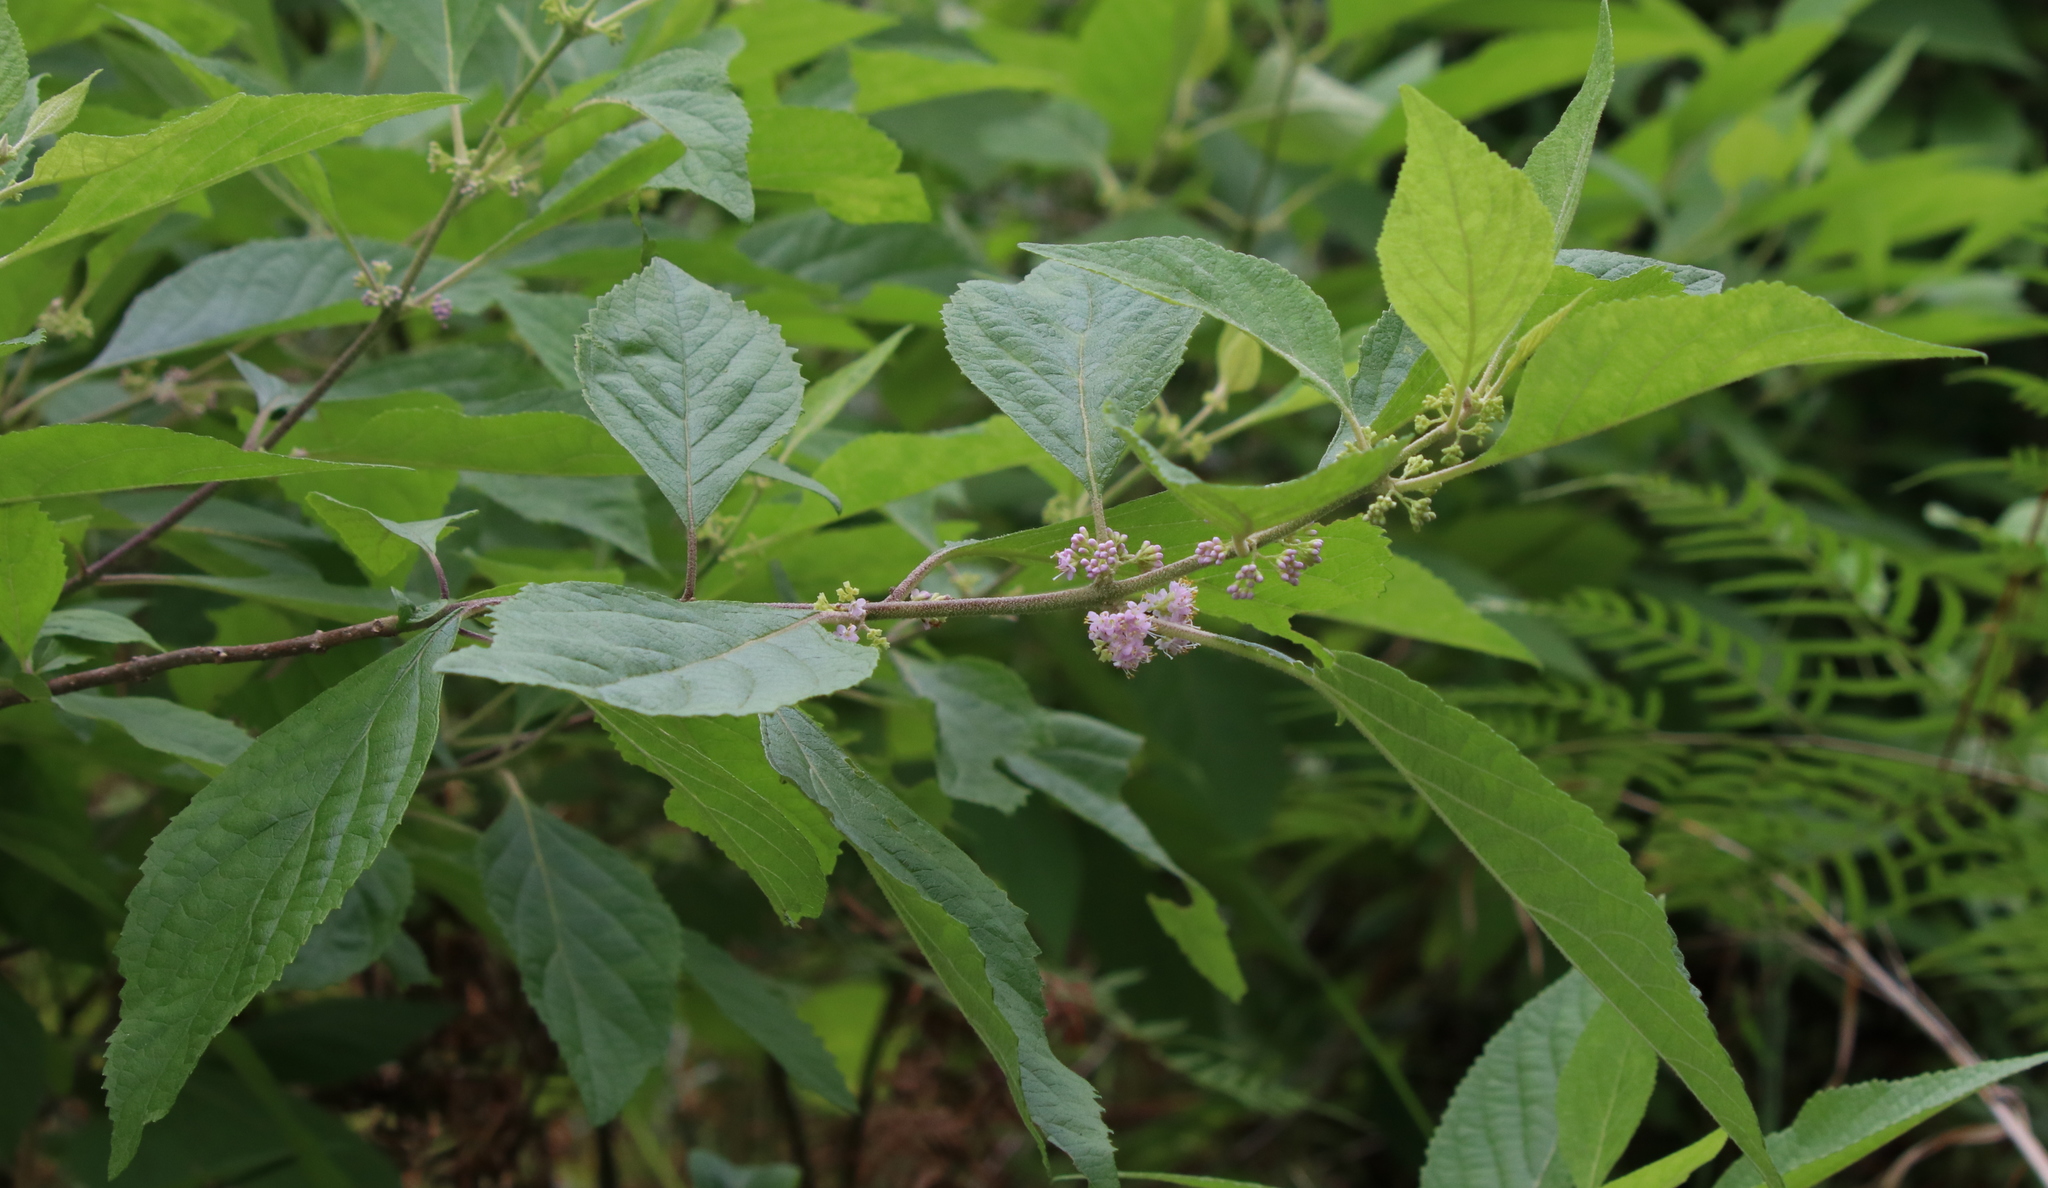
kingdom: Plantae
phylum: Tracheophyta
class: Magnoliopsida
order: Lamiales
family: Lamiaceae
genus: Callicarpa
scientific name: Callicarpa americana
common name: American beautyberry
